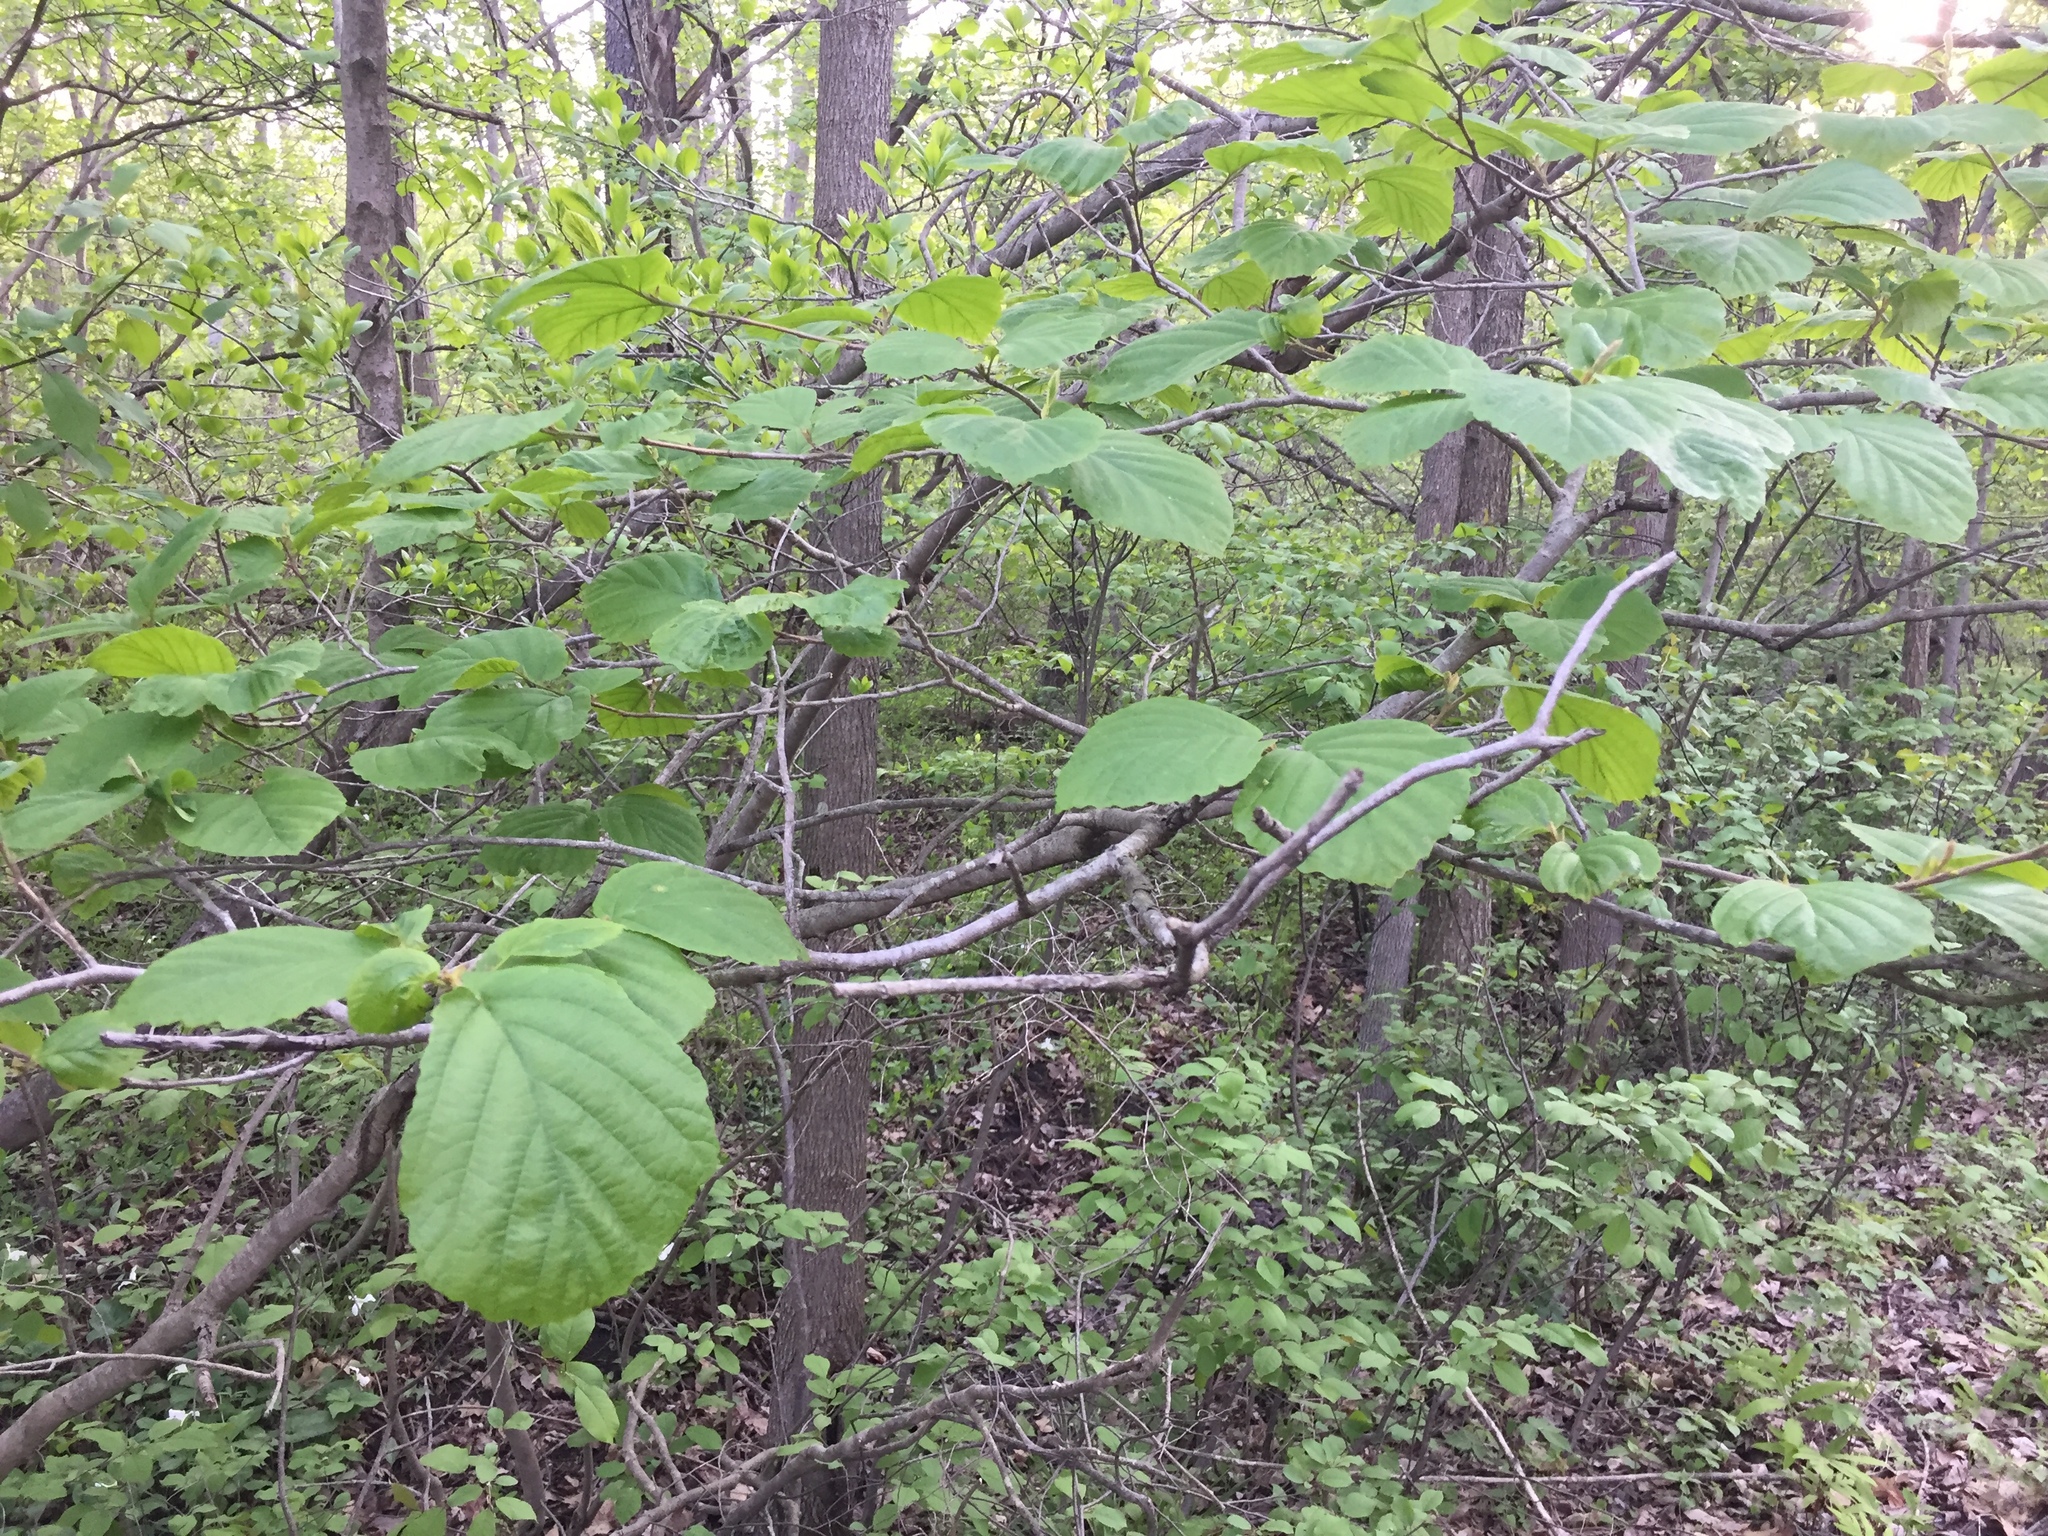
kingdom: Plantae
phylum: Tracheophyta
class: Magnoliopsida
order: Saxifragales
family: Hamamelidaceae
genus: Hamamelis
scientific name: Hamamelis virginiana
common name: Witch-hazel
